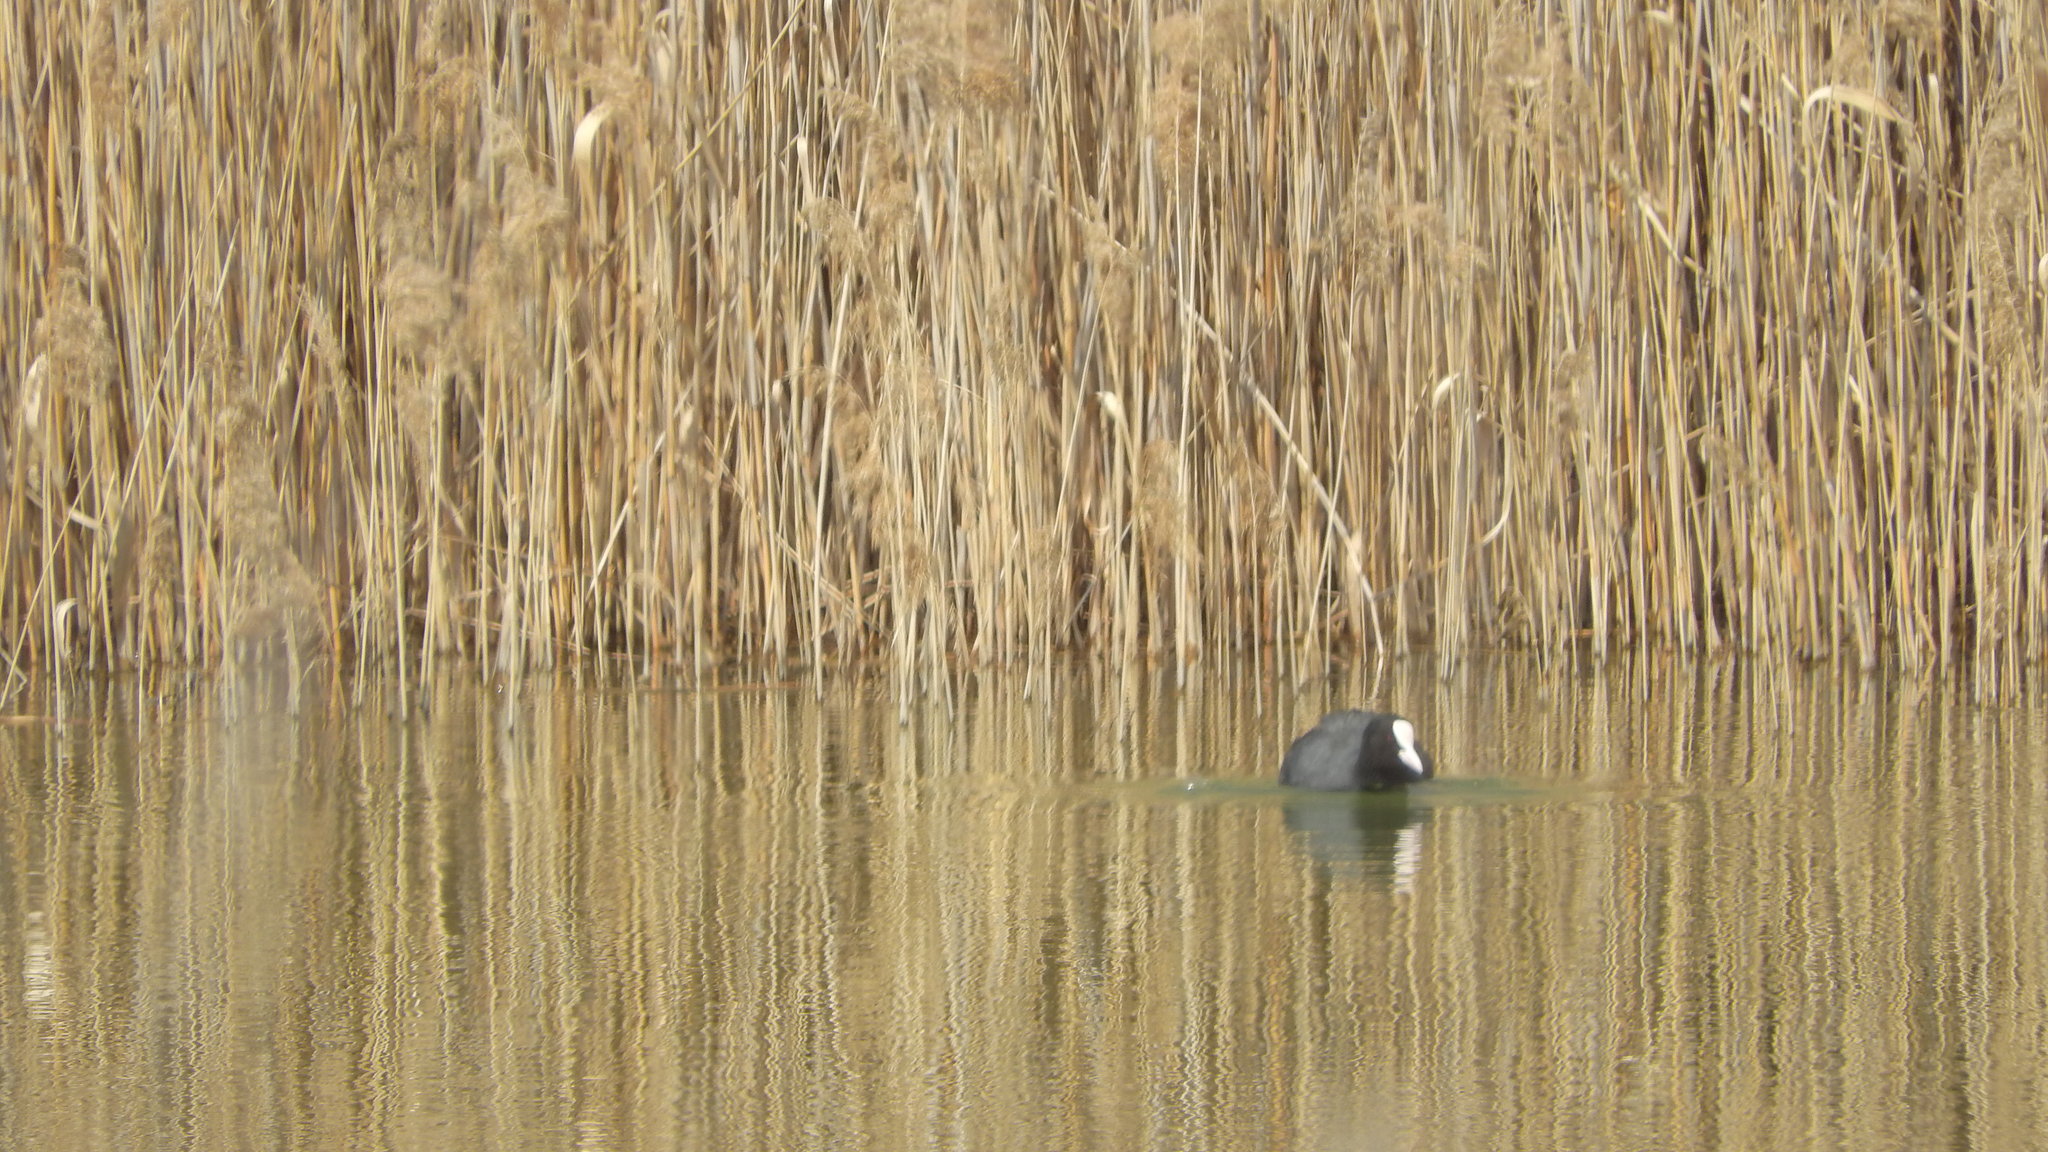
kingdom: Animalia
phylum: Chordata
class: Aves
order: Gruiformes
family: Rallidae
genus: Fulica
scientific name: Fulica atra
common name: Eurasian coot
